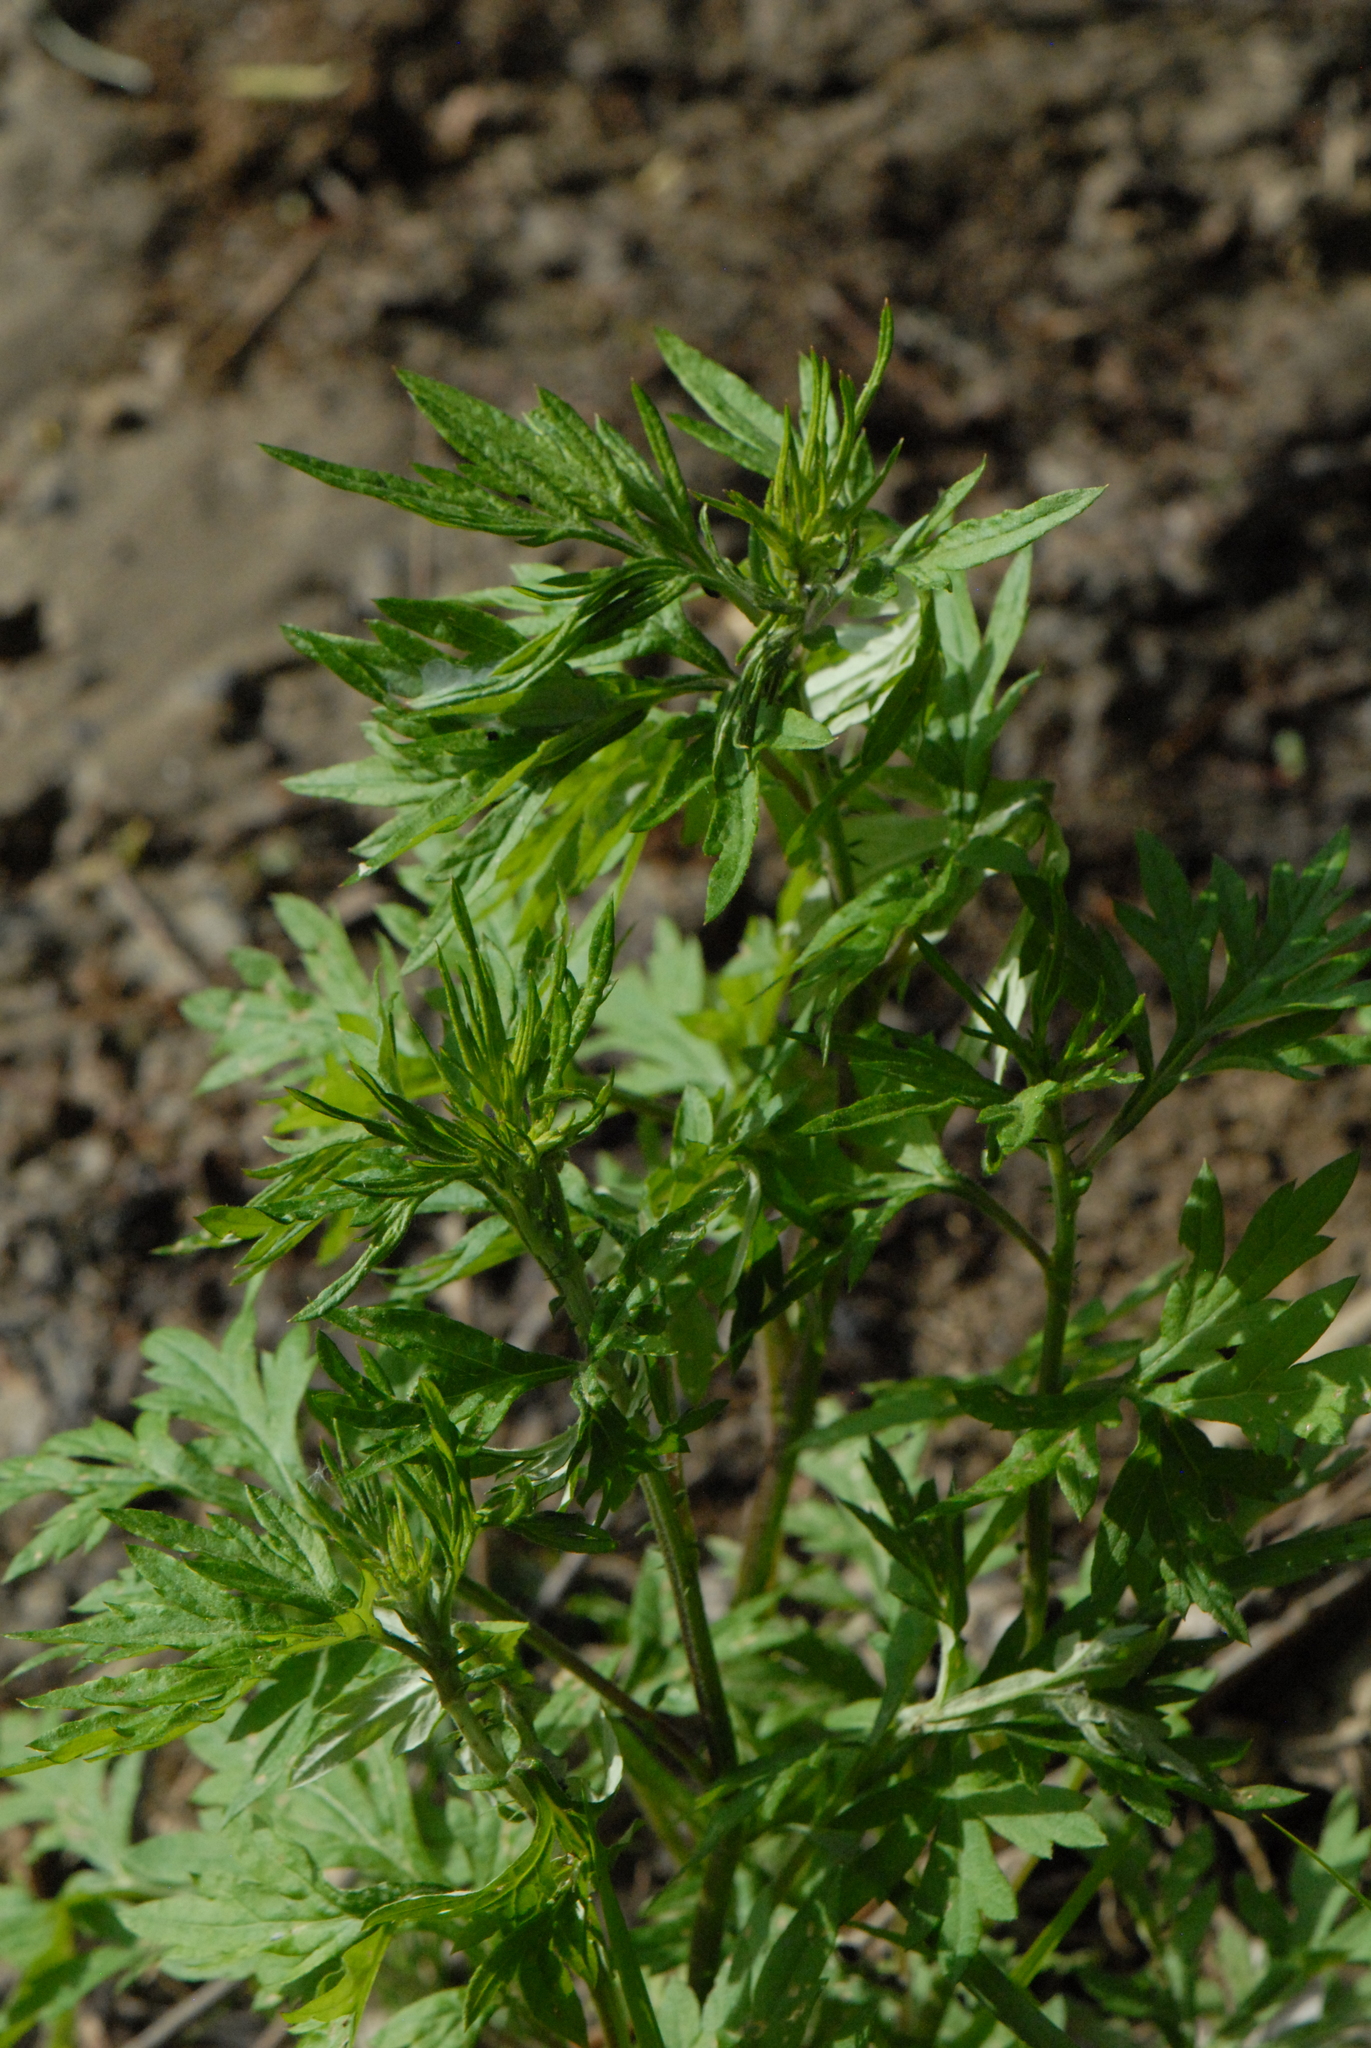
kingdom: Plantae
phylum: Tracheophyta
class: Magnoliopsida
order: Asterales
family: Asteraceae
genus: Artemisia
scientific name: Artemisia vulgaris
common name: Mugwort
